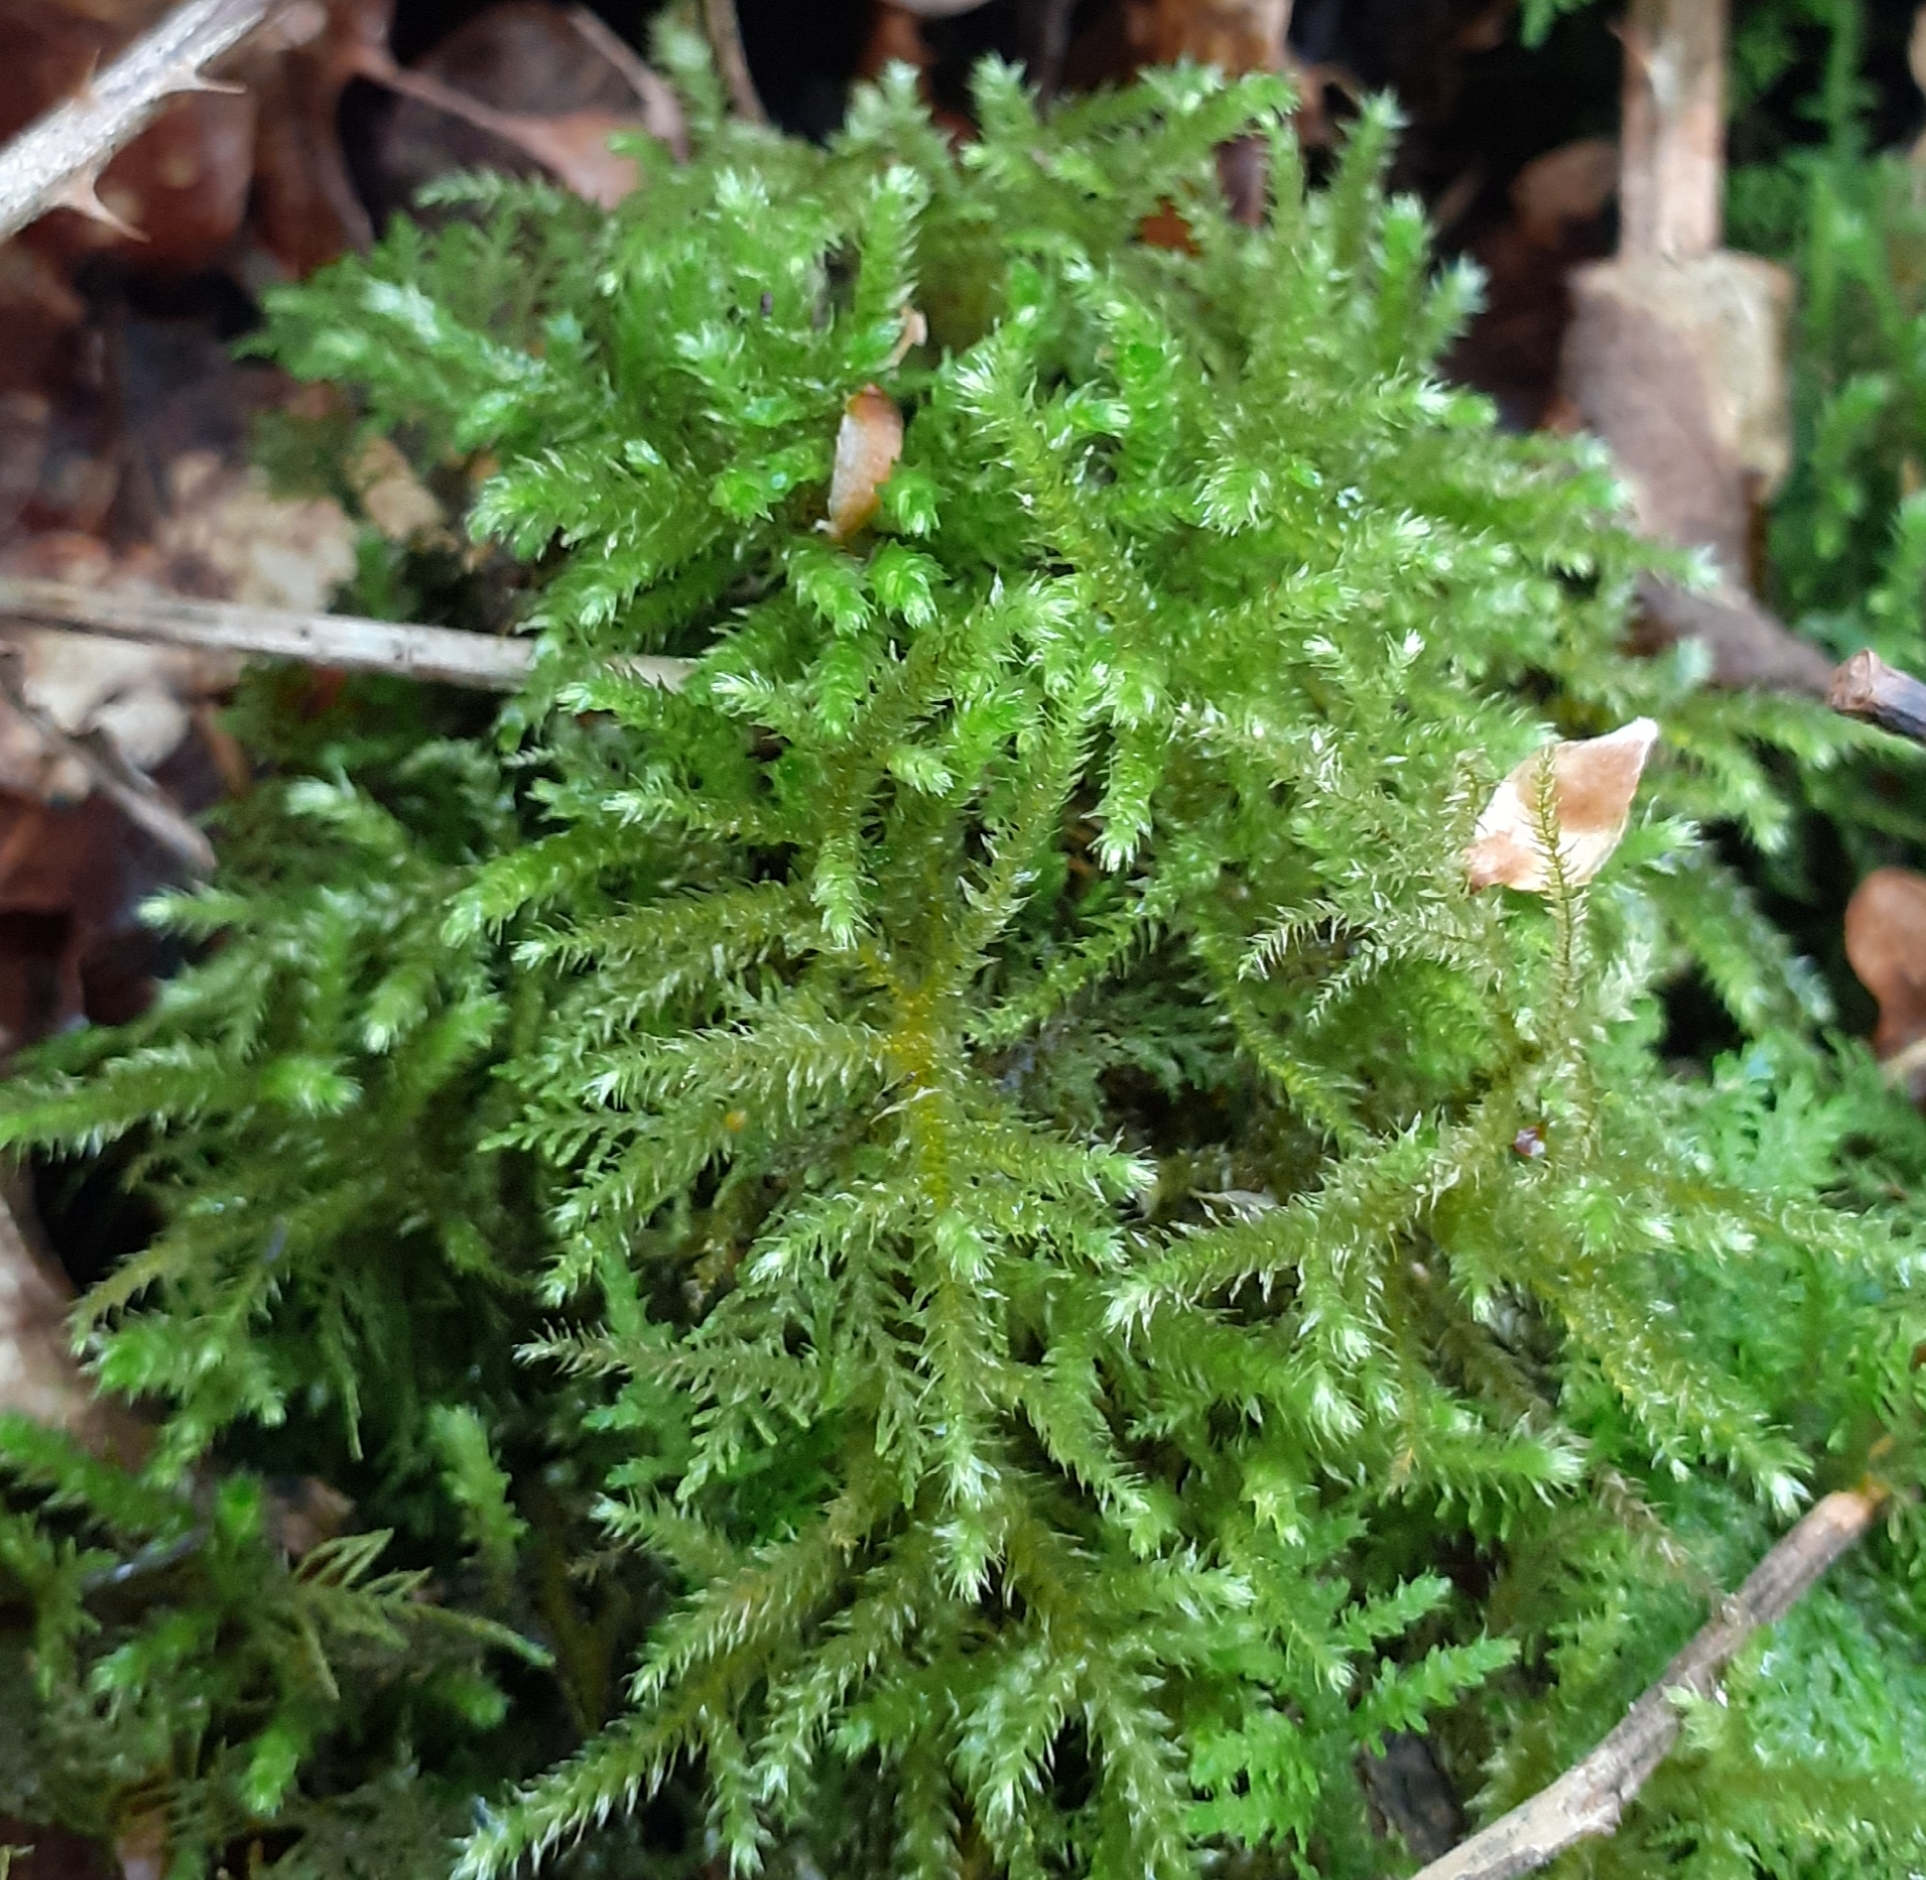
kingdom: Plantae
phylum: Bryophyta
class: Bryopsida
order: Hypnales
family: Brachytheciaceae
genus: Eurhynchium
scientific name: Eurhynchium striatum
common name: Common striated feather-moss
